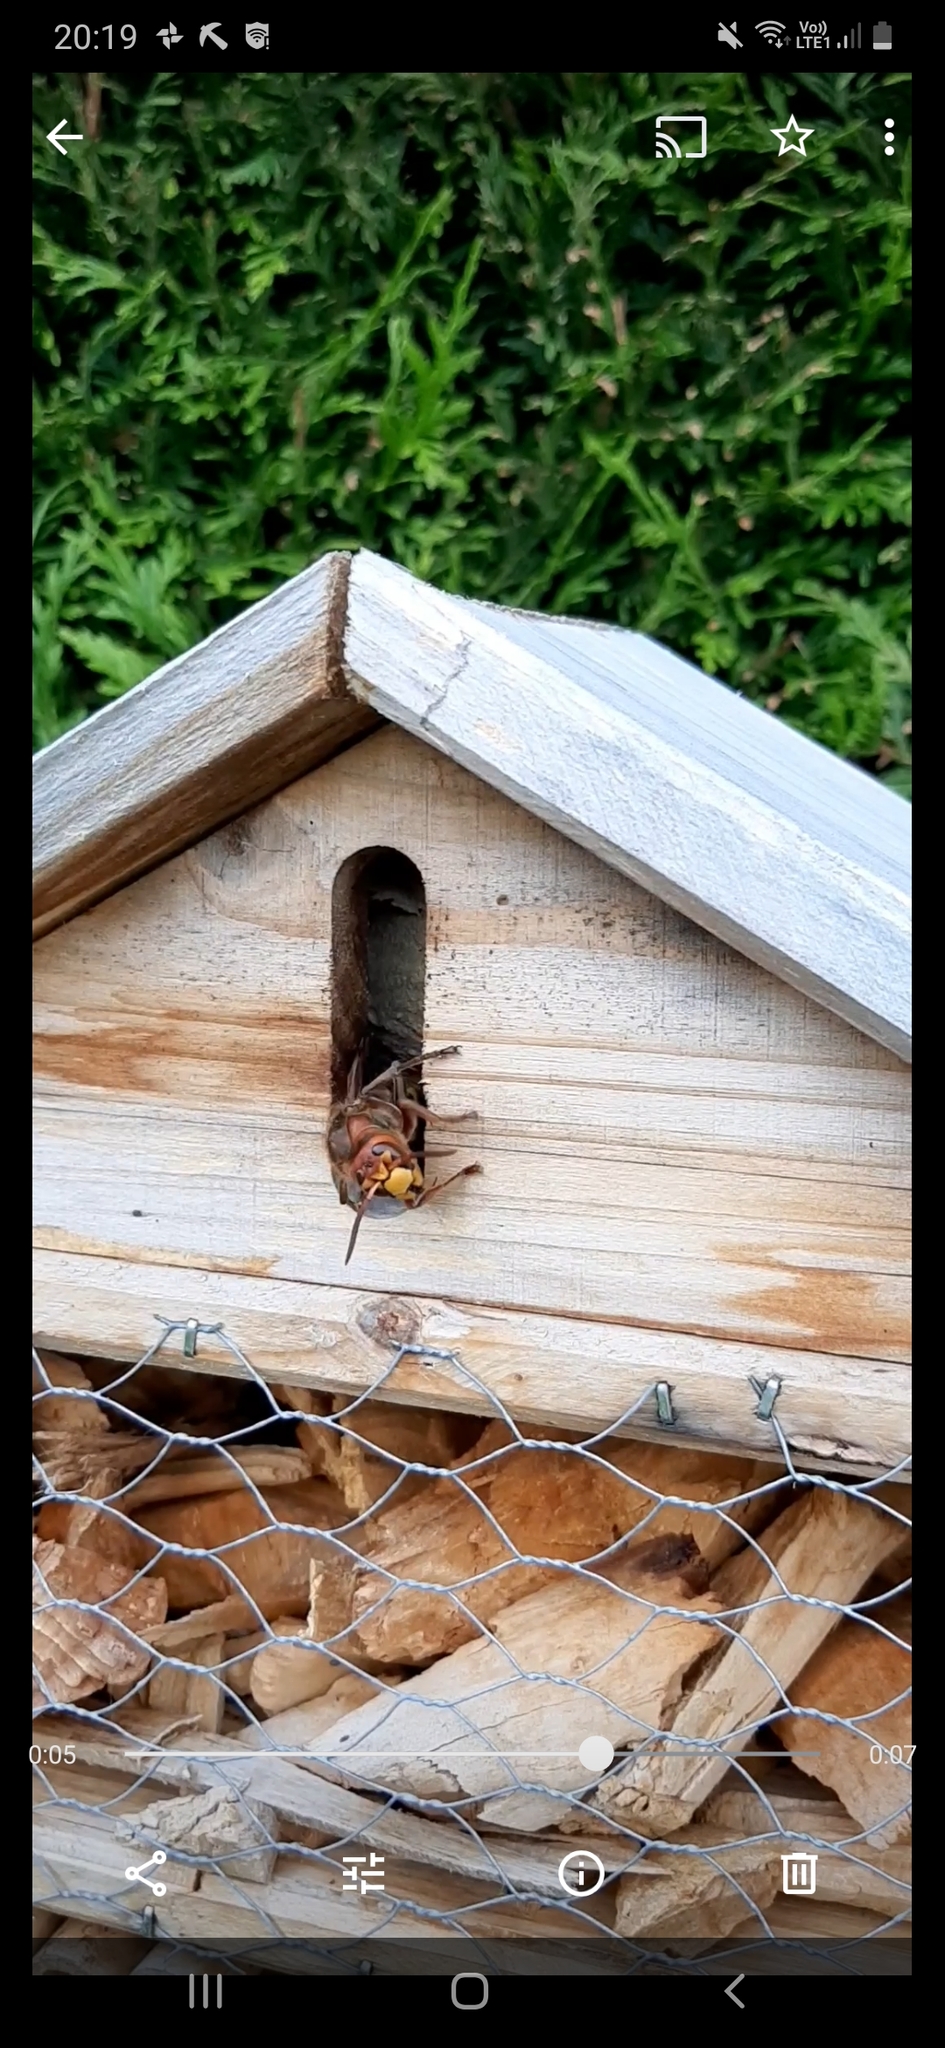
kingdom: Animalia
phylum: Arthropoda
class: Insecta
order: Hymenoptera
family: Vespidae
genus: Vespa
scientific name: Vespa crabro
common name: Hornet
